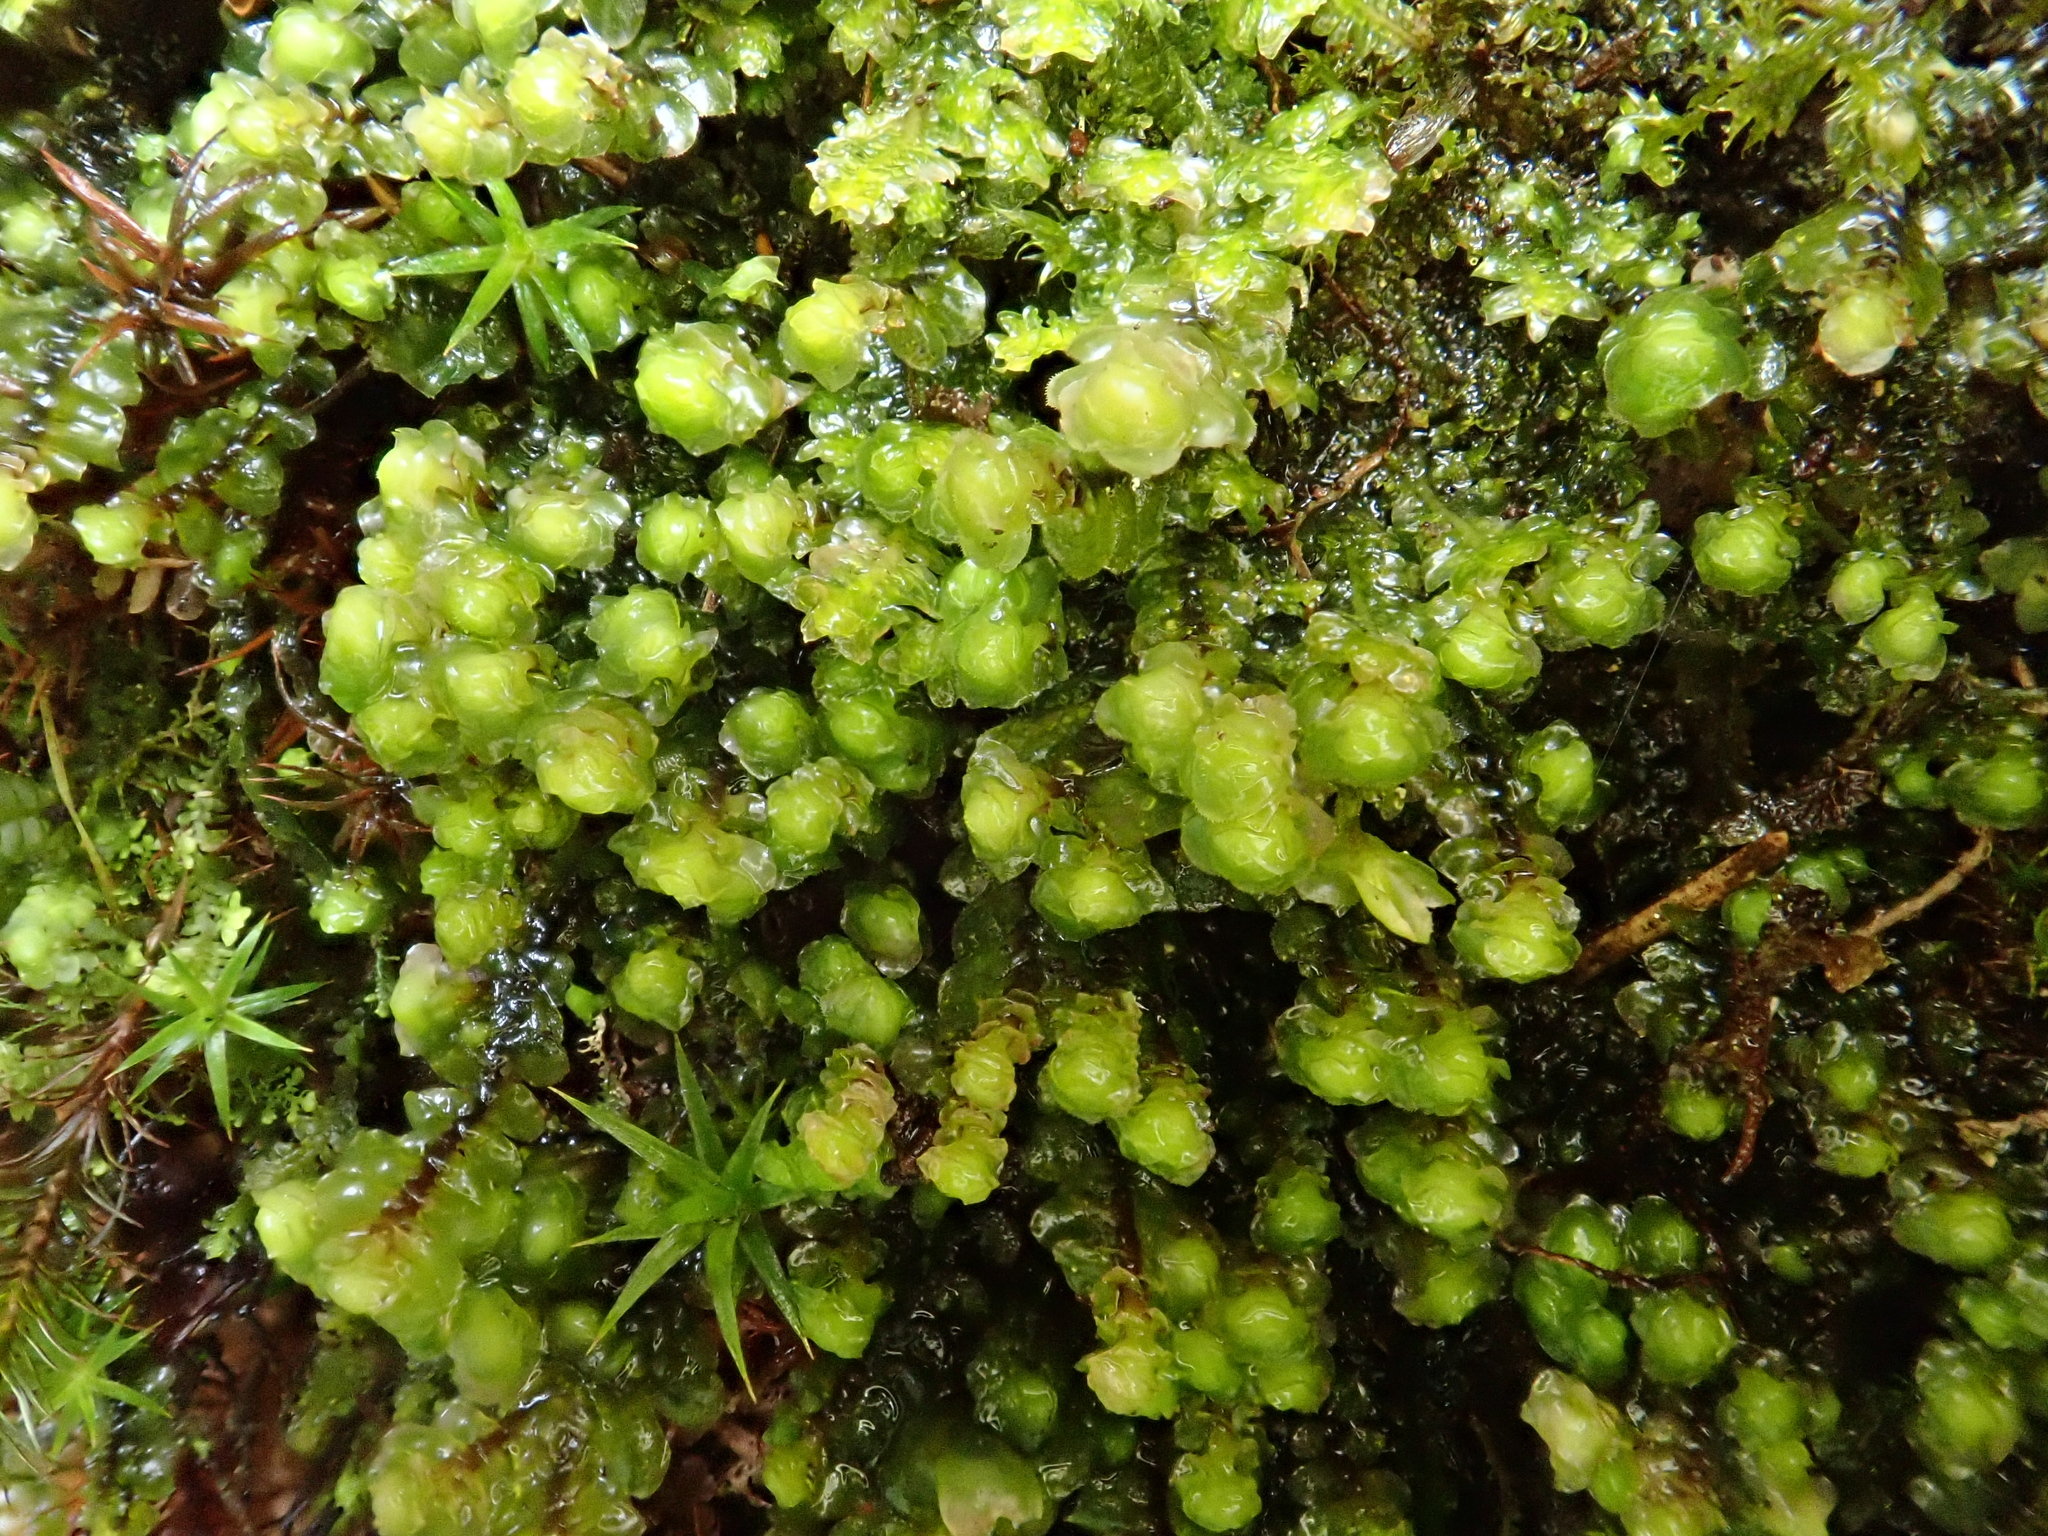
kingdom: Plantae
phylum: Marchantiophyta
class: Jungermanniopsida
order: Jungermanniales
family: Scapaniaceae
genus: Scapania
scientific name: Scapania nemorea
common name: Grove earwort
